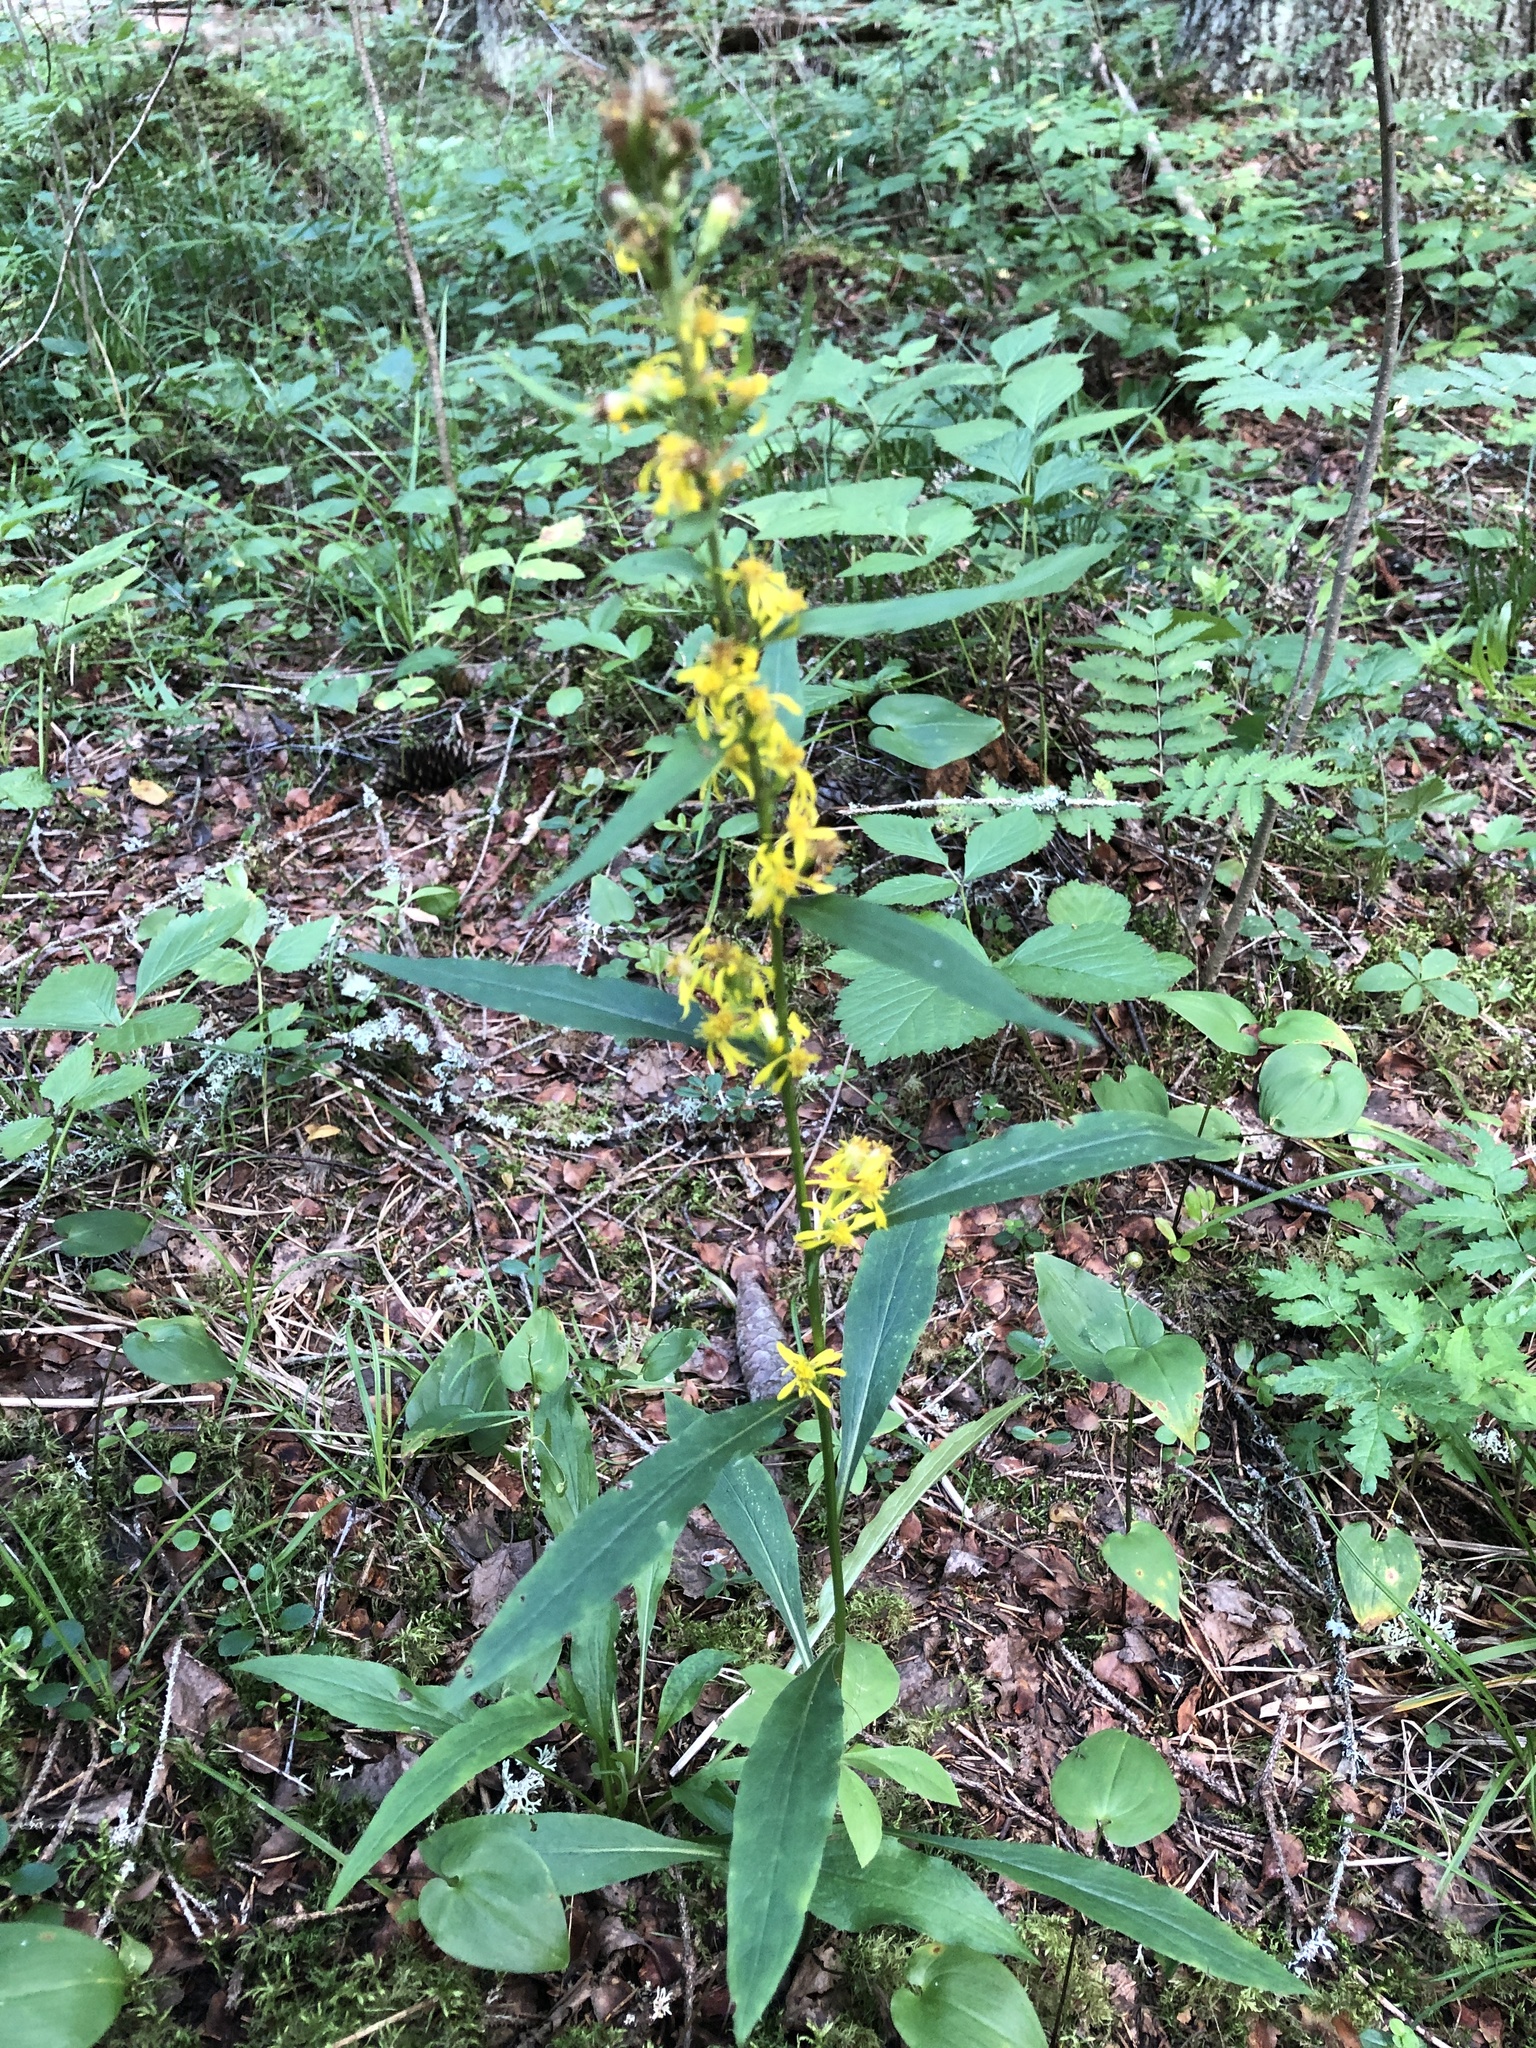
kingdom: Plantae
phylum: Tracheophyta
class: Magnoliopsida
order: Asterales
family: Asteraceae
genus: Solidago
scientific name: Solidago virgaurea
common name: Goldenrod
